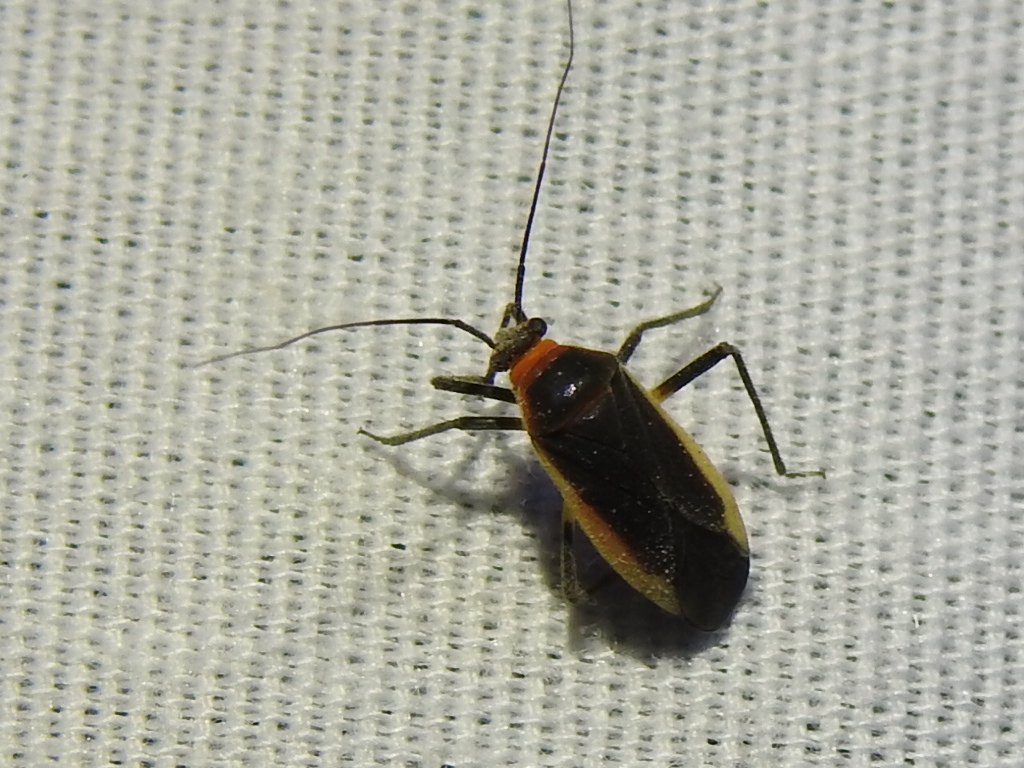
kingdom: Animalia
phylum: Arthropoda
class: Insecta
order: Hemiptera
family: Miridae
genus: Opistheurista
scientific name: Opistheurista clandestina
